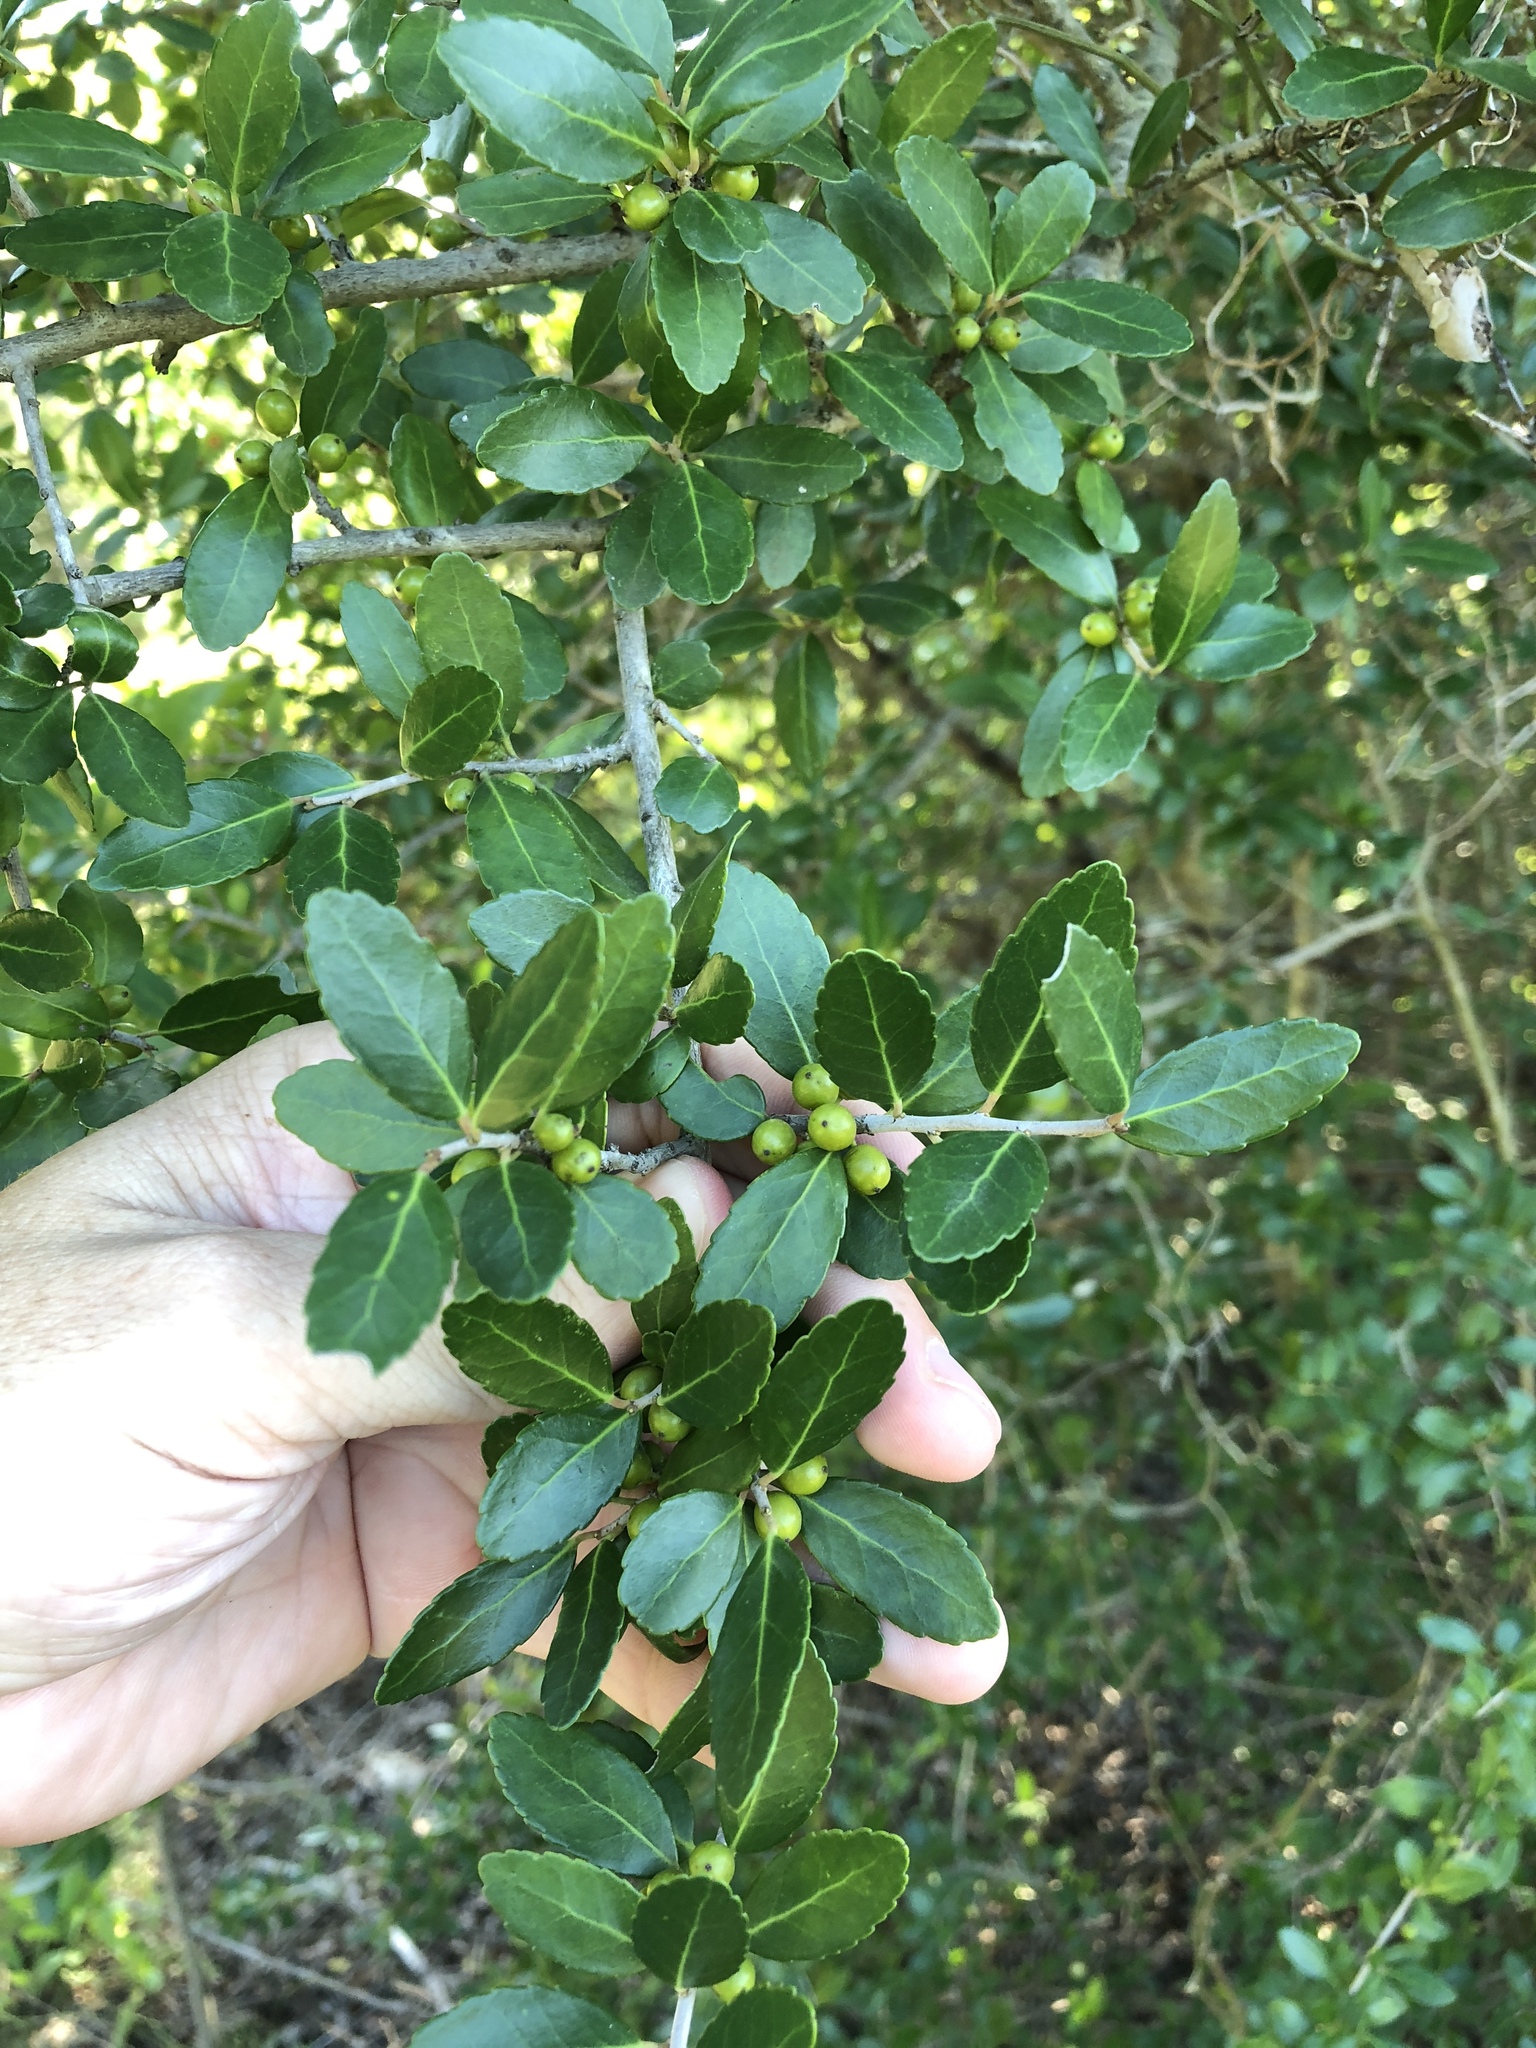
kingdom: Plantae
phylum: Tracheophyta
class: Magnoliopsida
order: Aquifoliales
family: Aquifoliaceae
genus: Ilex
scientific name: Ilex vomitoria
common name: Yaupon holly
